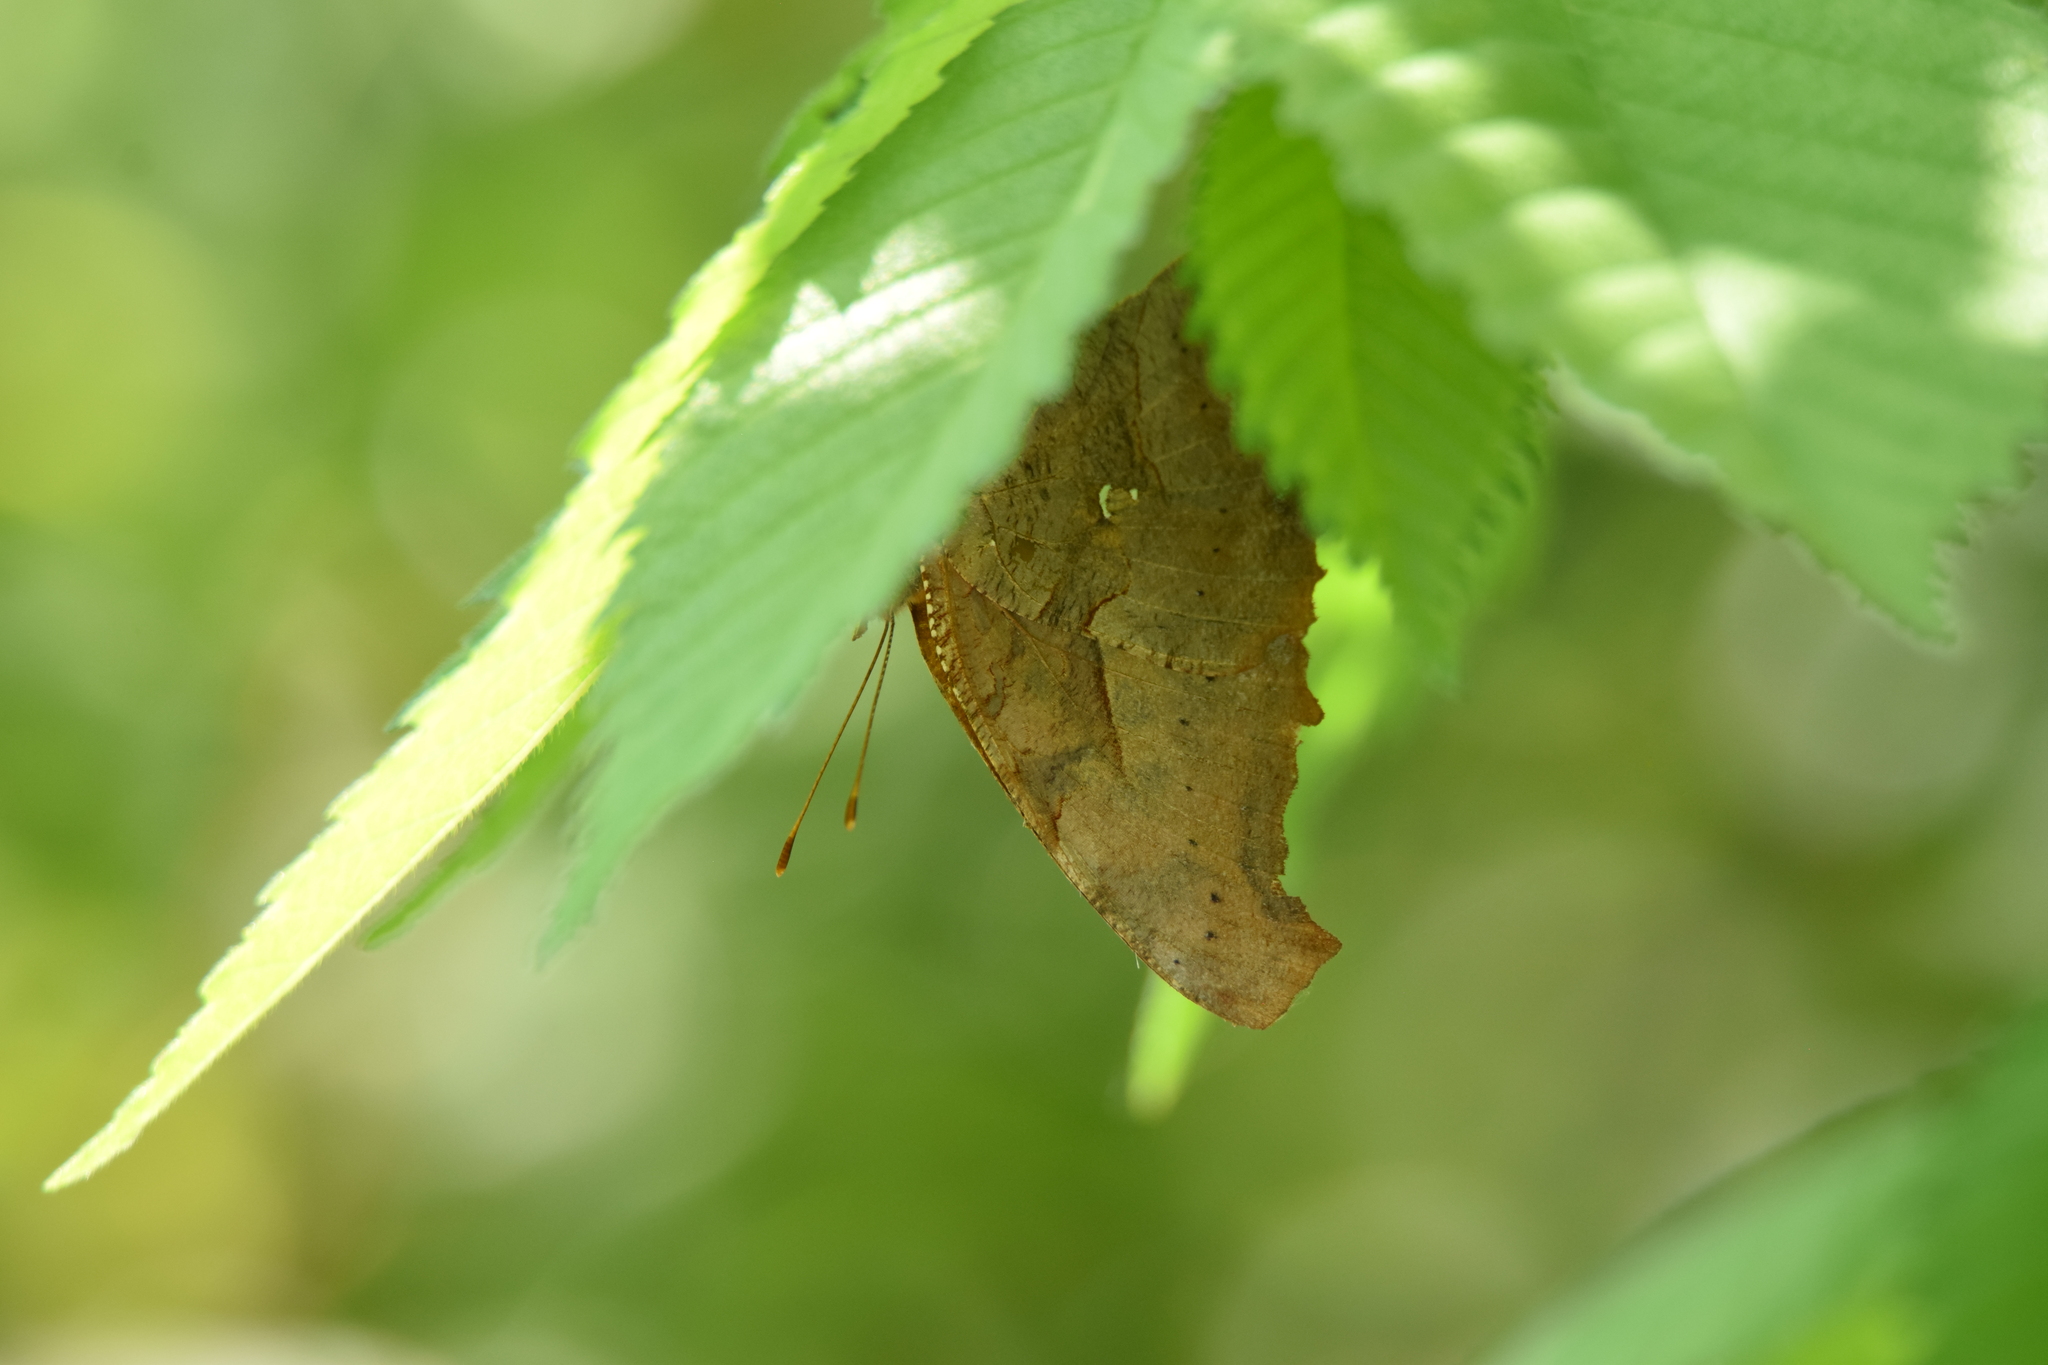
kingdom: Animalia
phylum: Arthropoda
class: Insecta
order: Lepidoptera
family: Nymphalidae
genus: Polygonia
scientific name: Polygonia interrogationis
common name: Question mark
